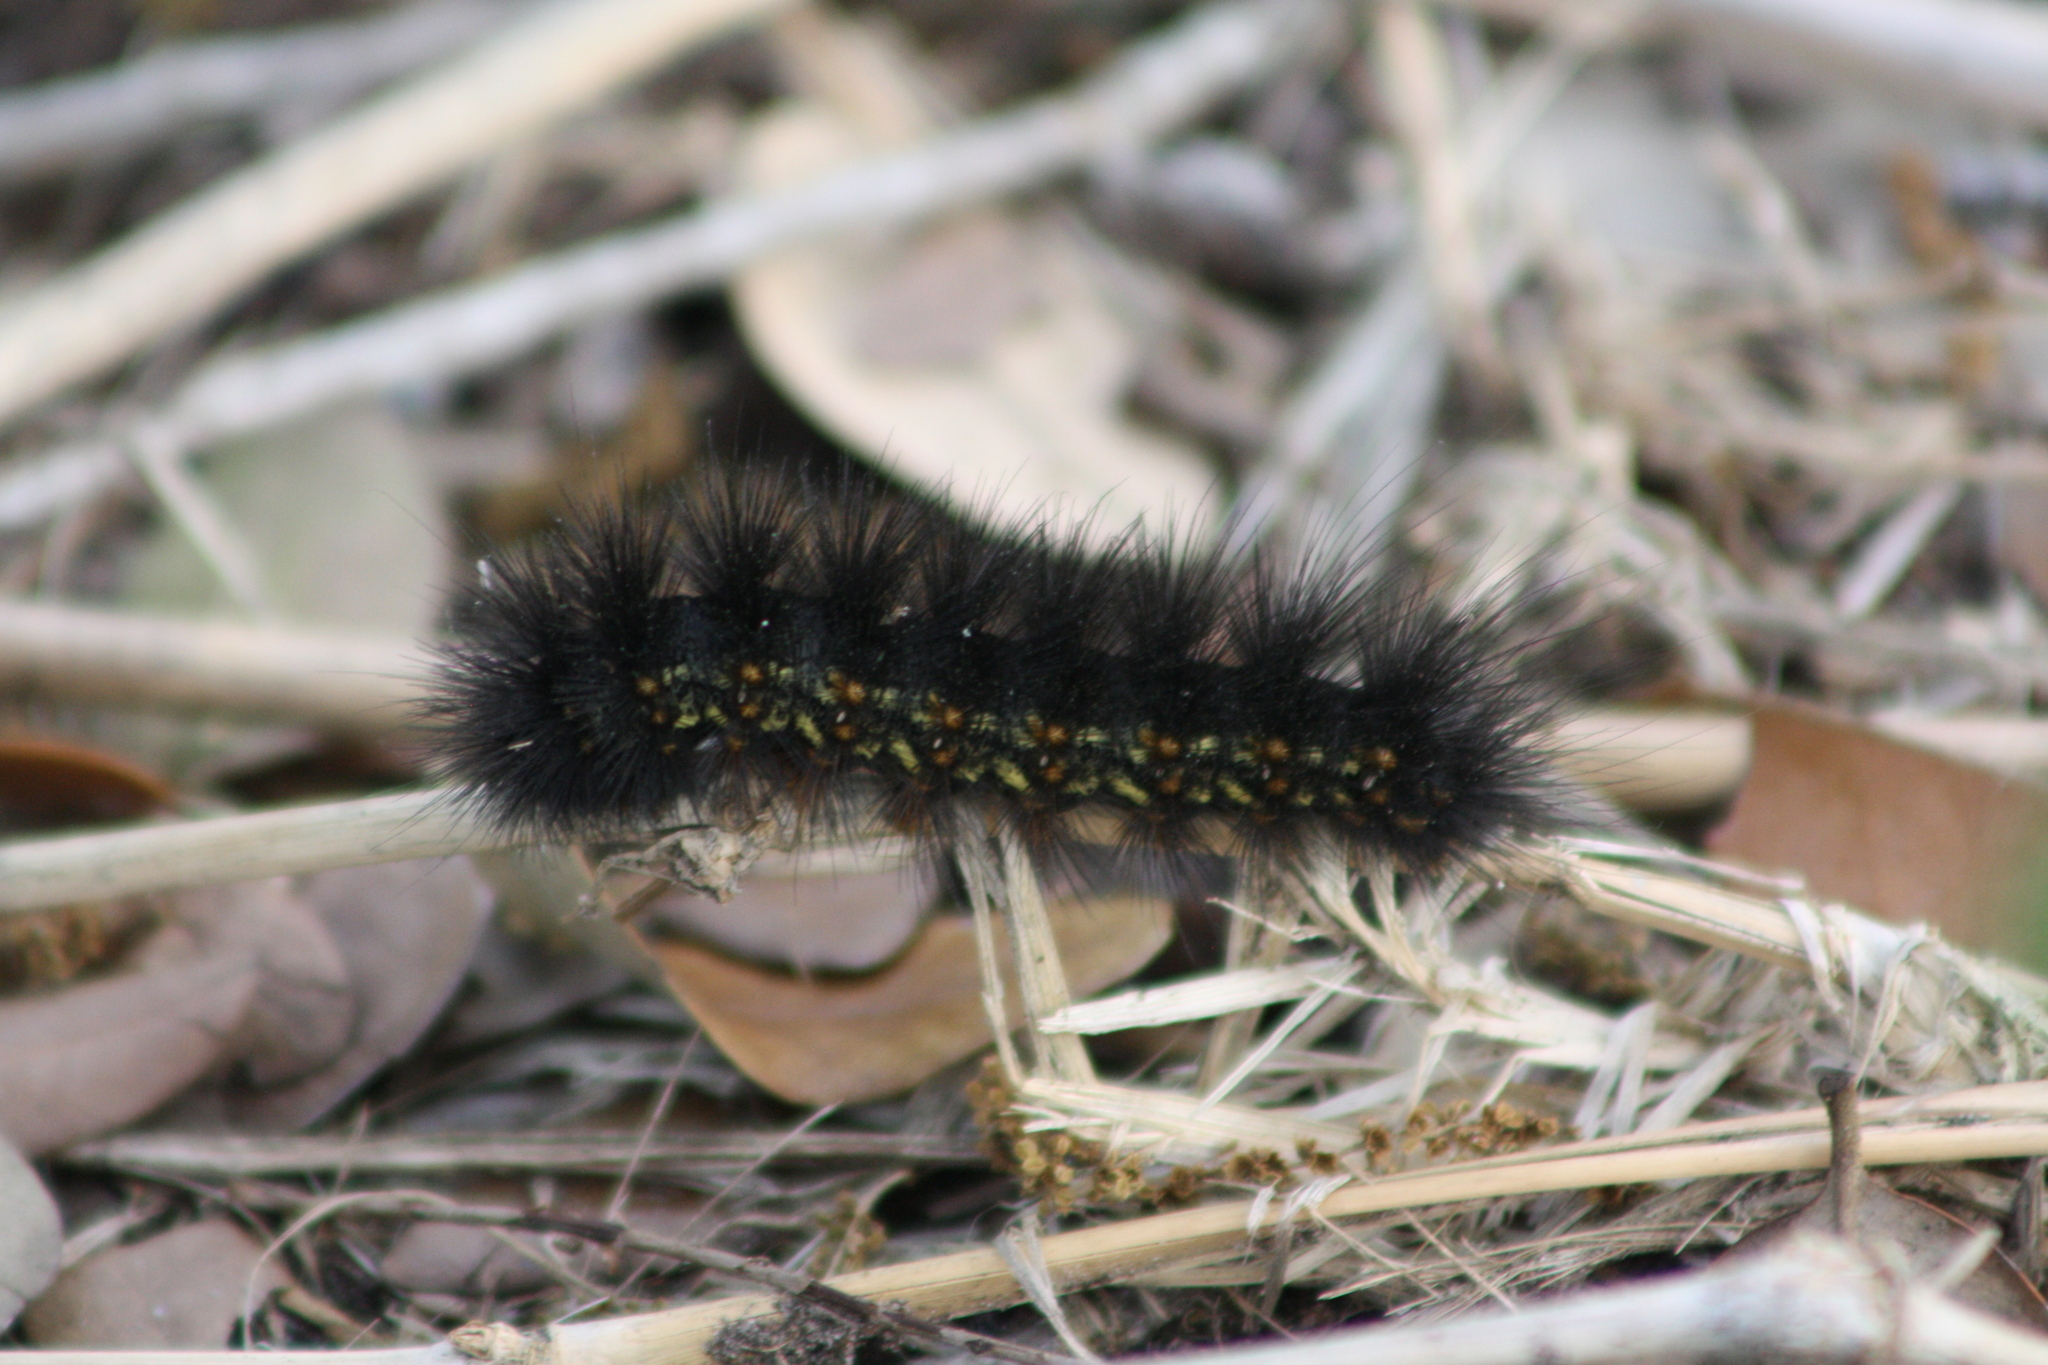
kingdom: Animalia
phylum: Arthropoda
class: Insecta
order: Lepidoptera
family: Erebidae
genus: Estigmene
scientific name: Estigmene acrea
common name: Salt marsh moth
